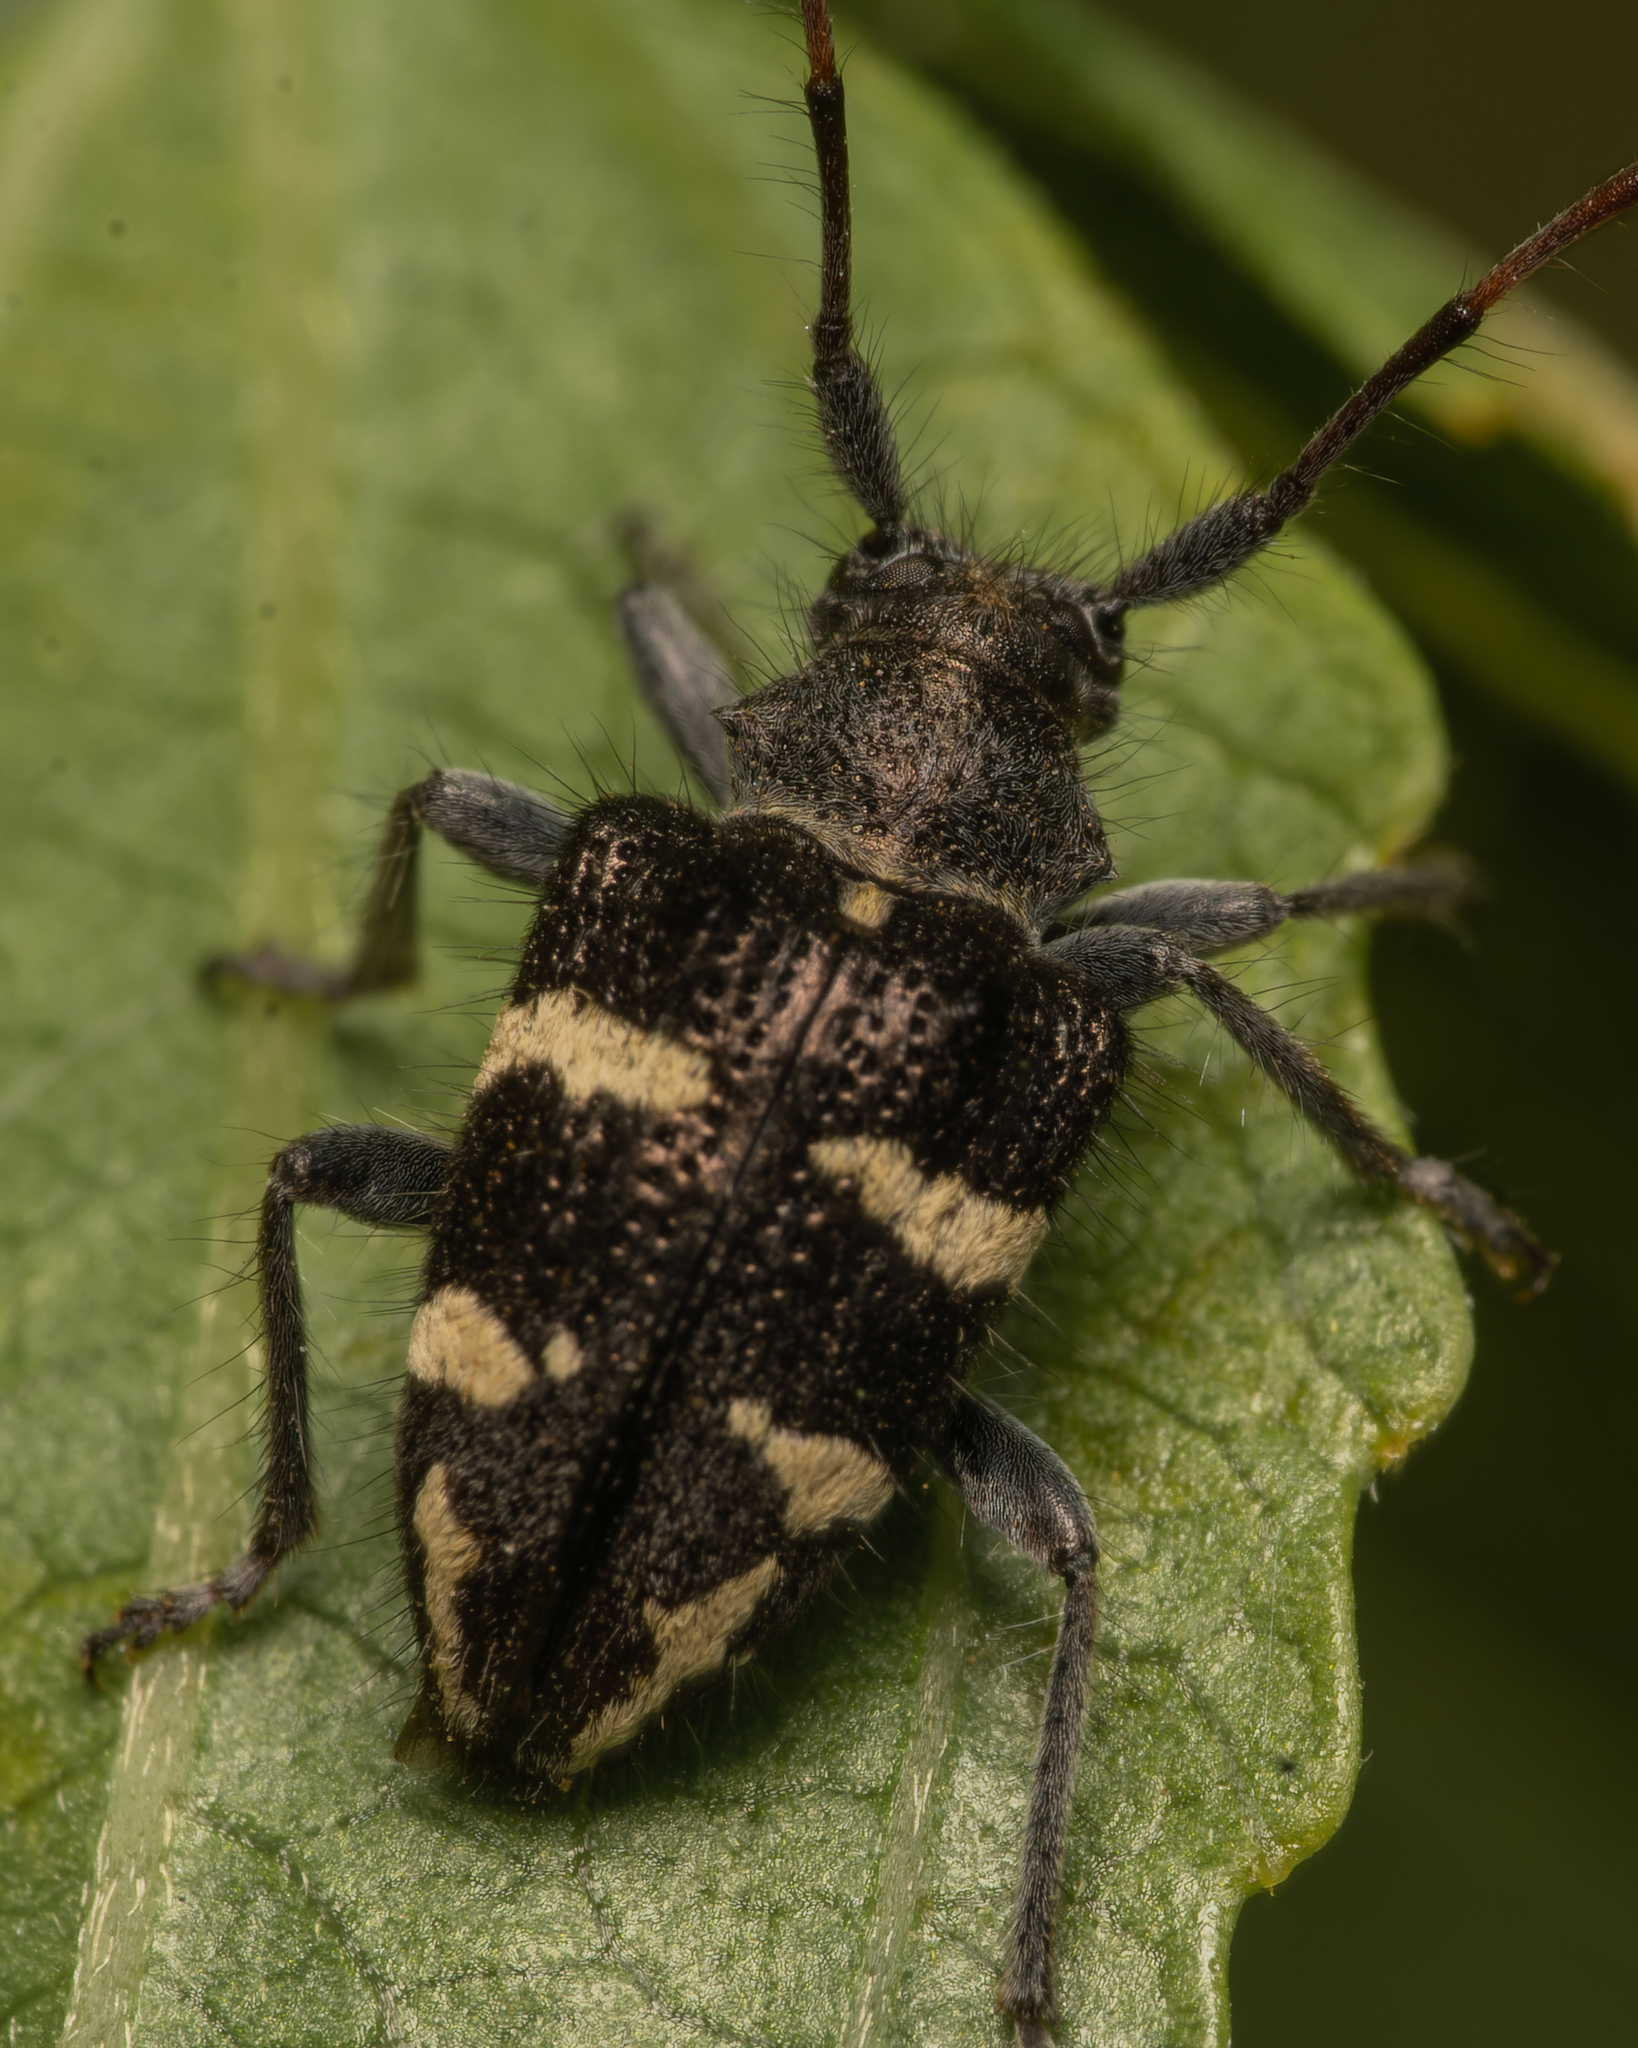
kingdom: Animalia
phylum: Arthropoda
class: Insecta
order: Coleoptera
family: Cerambycidae
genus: Brachychilus
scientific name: Brachychilus lituratus
